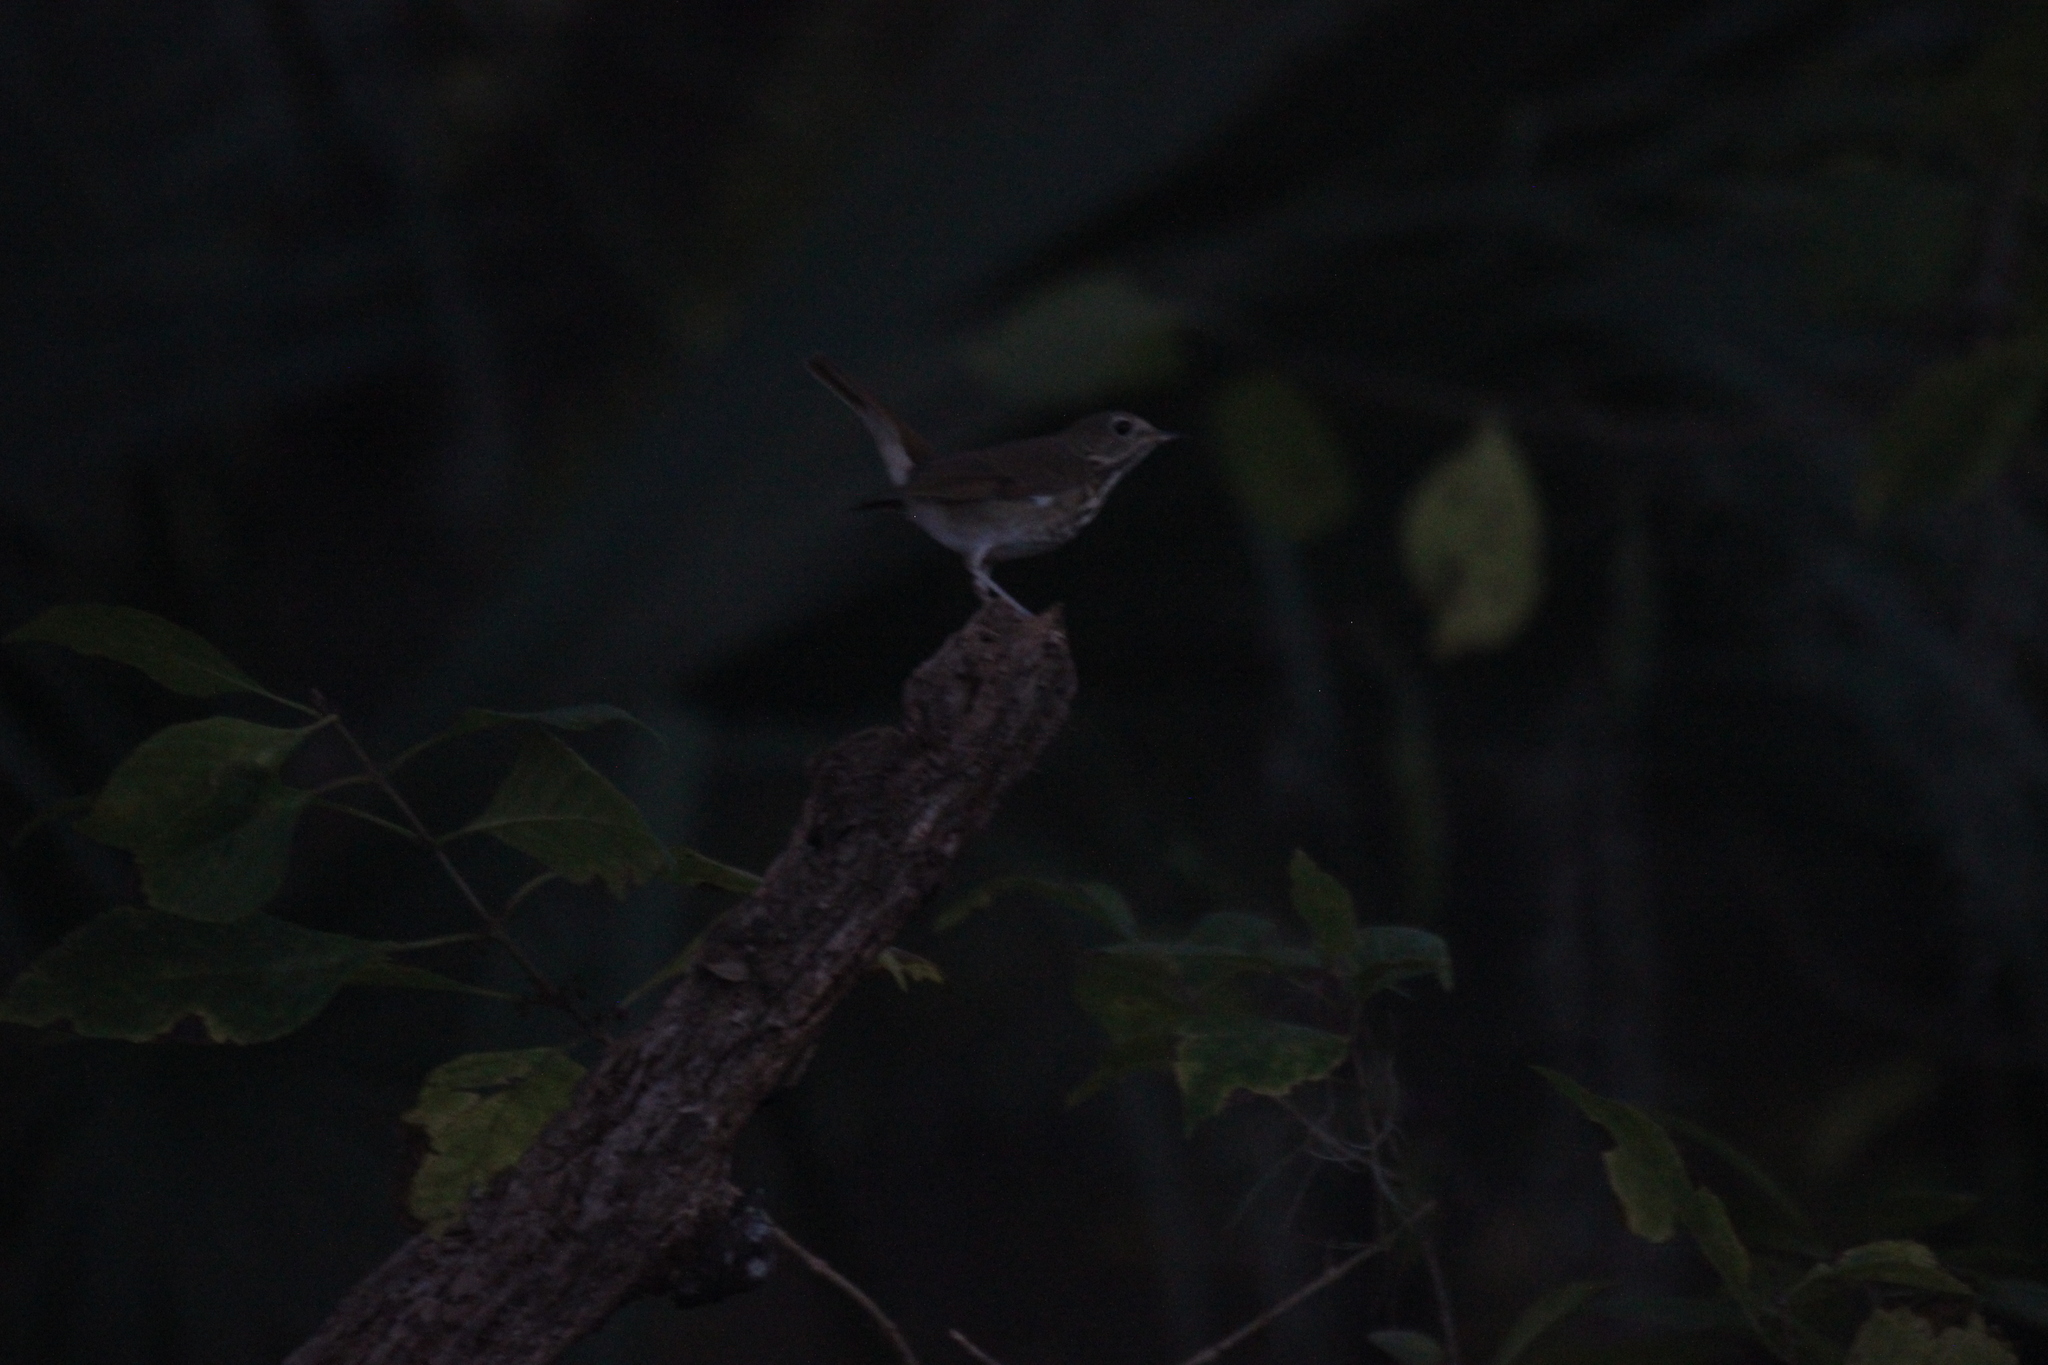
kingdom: Animalia
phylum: Chordata
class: Aves
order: Passeriformes
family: Turdidae
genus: Catharus
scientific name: Catharus guttatus
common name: Hermit thrush
